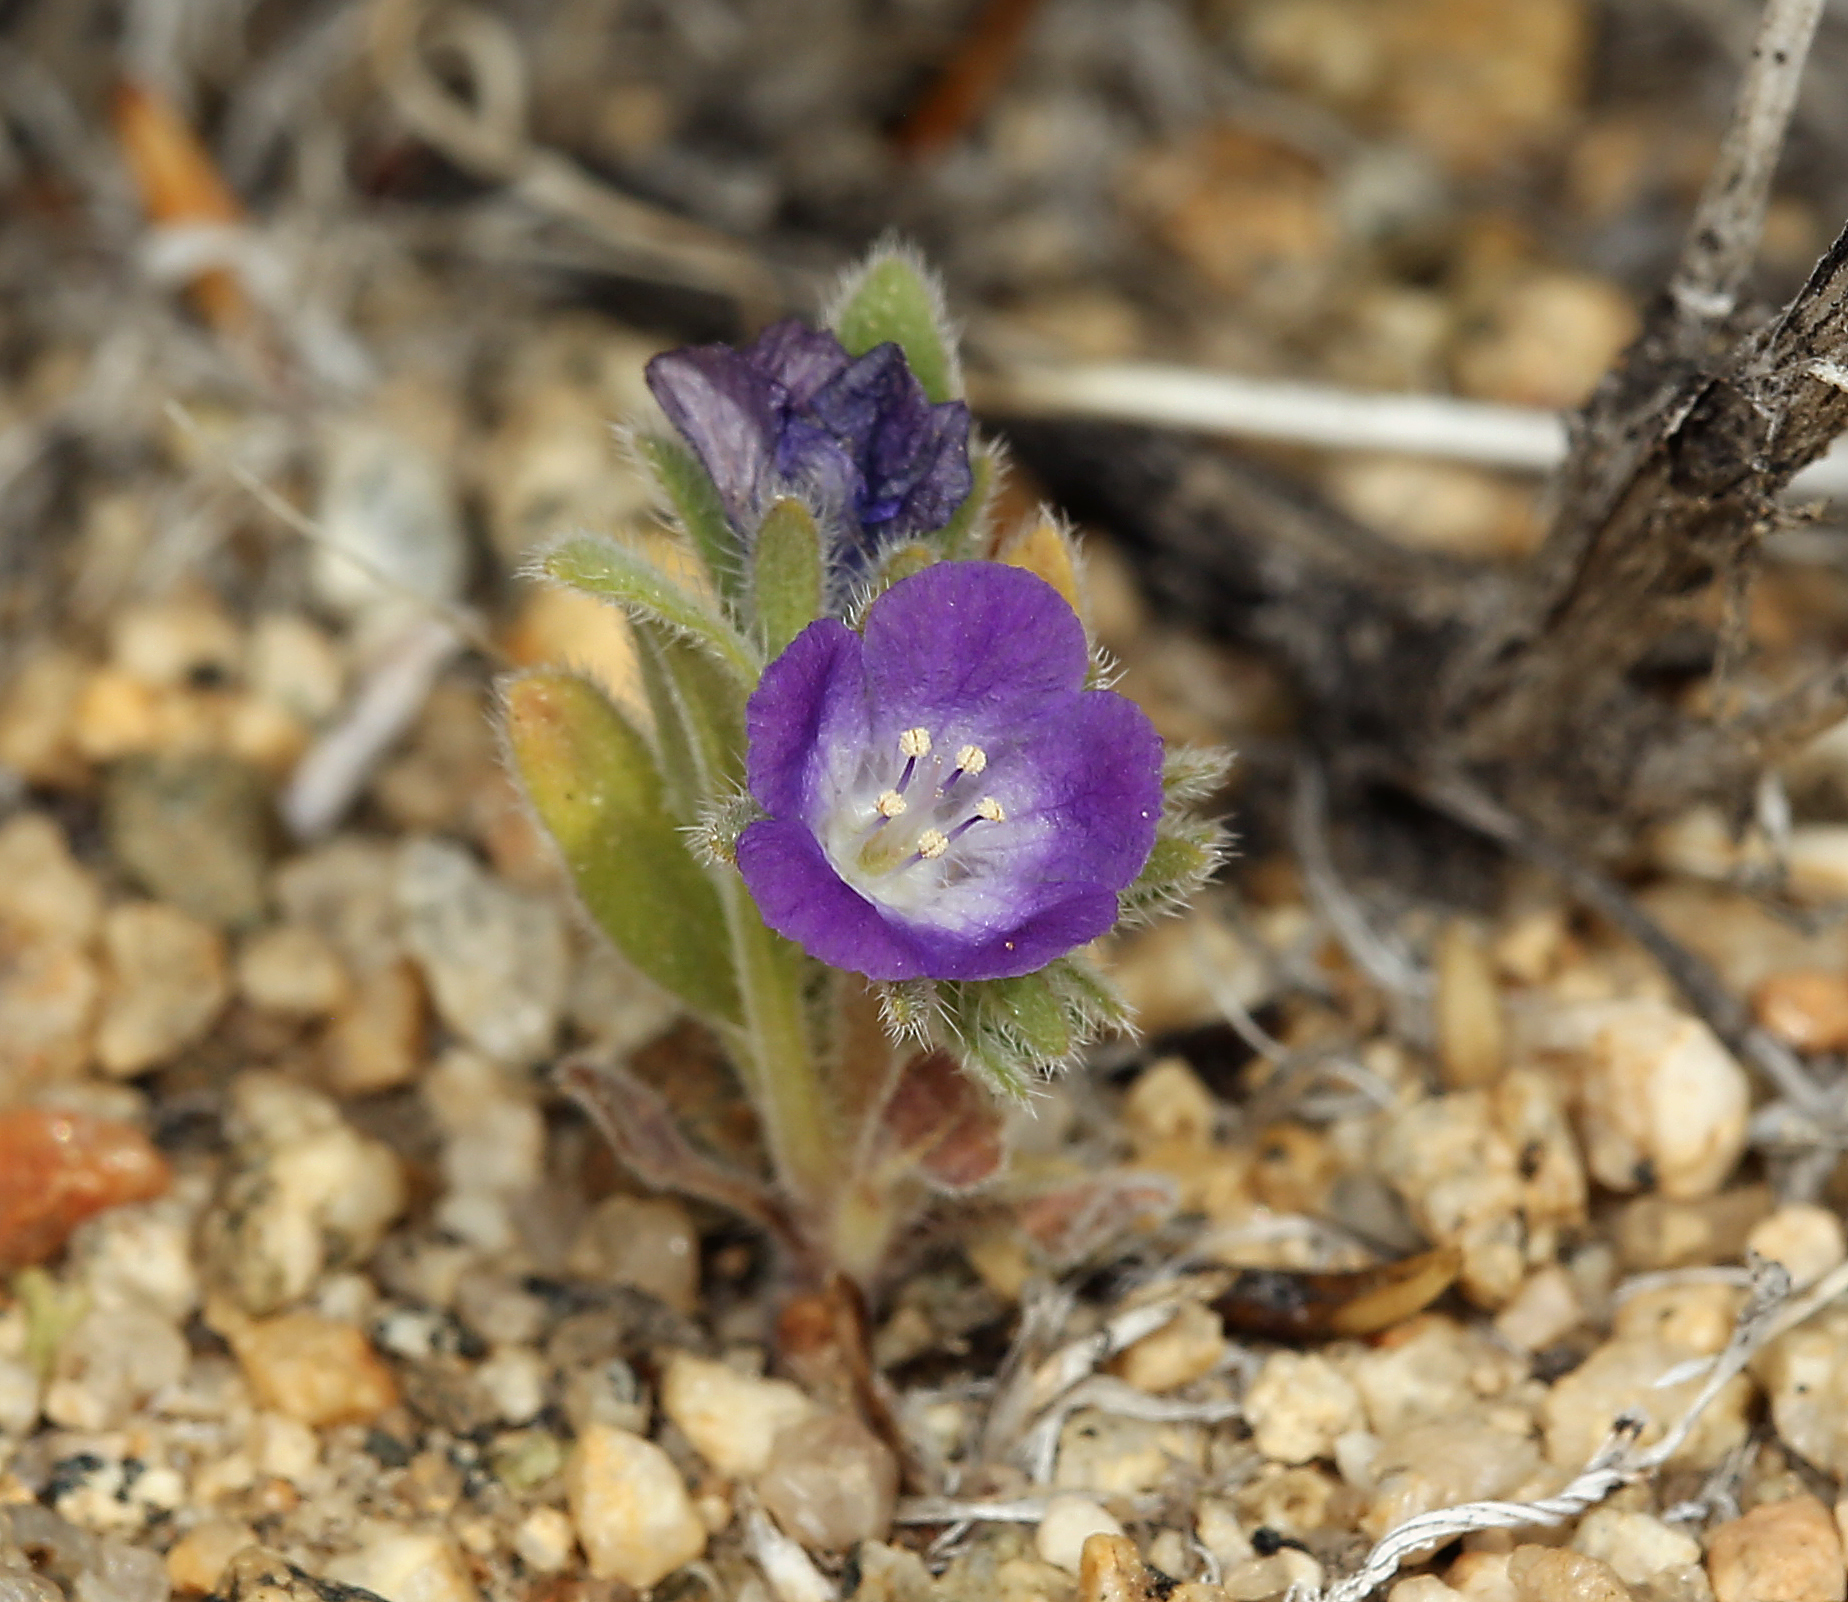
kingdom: Plantae
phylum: Tracheophyta
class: Magnoliopsida
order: Boraginales
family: Hydrophyllaceae
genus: Phacelia
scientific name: Phacelia curvipes
